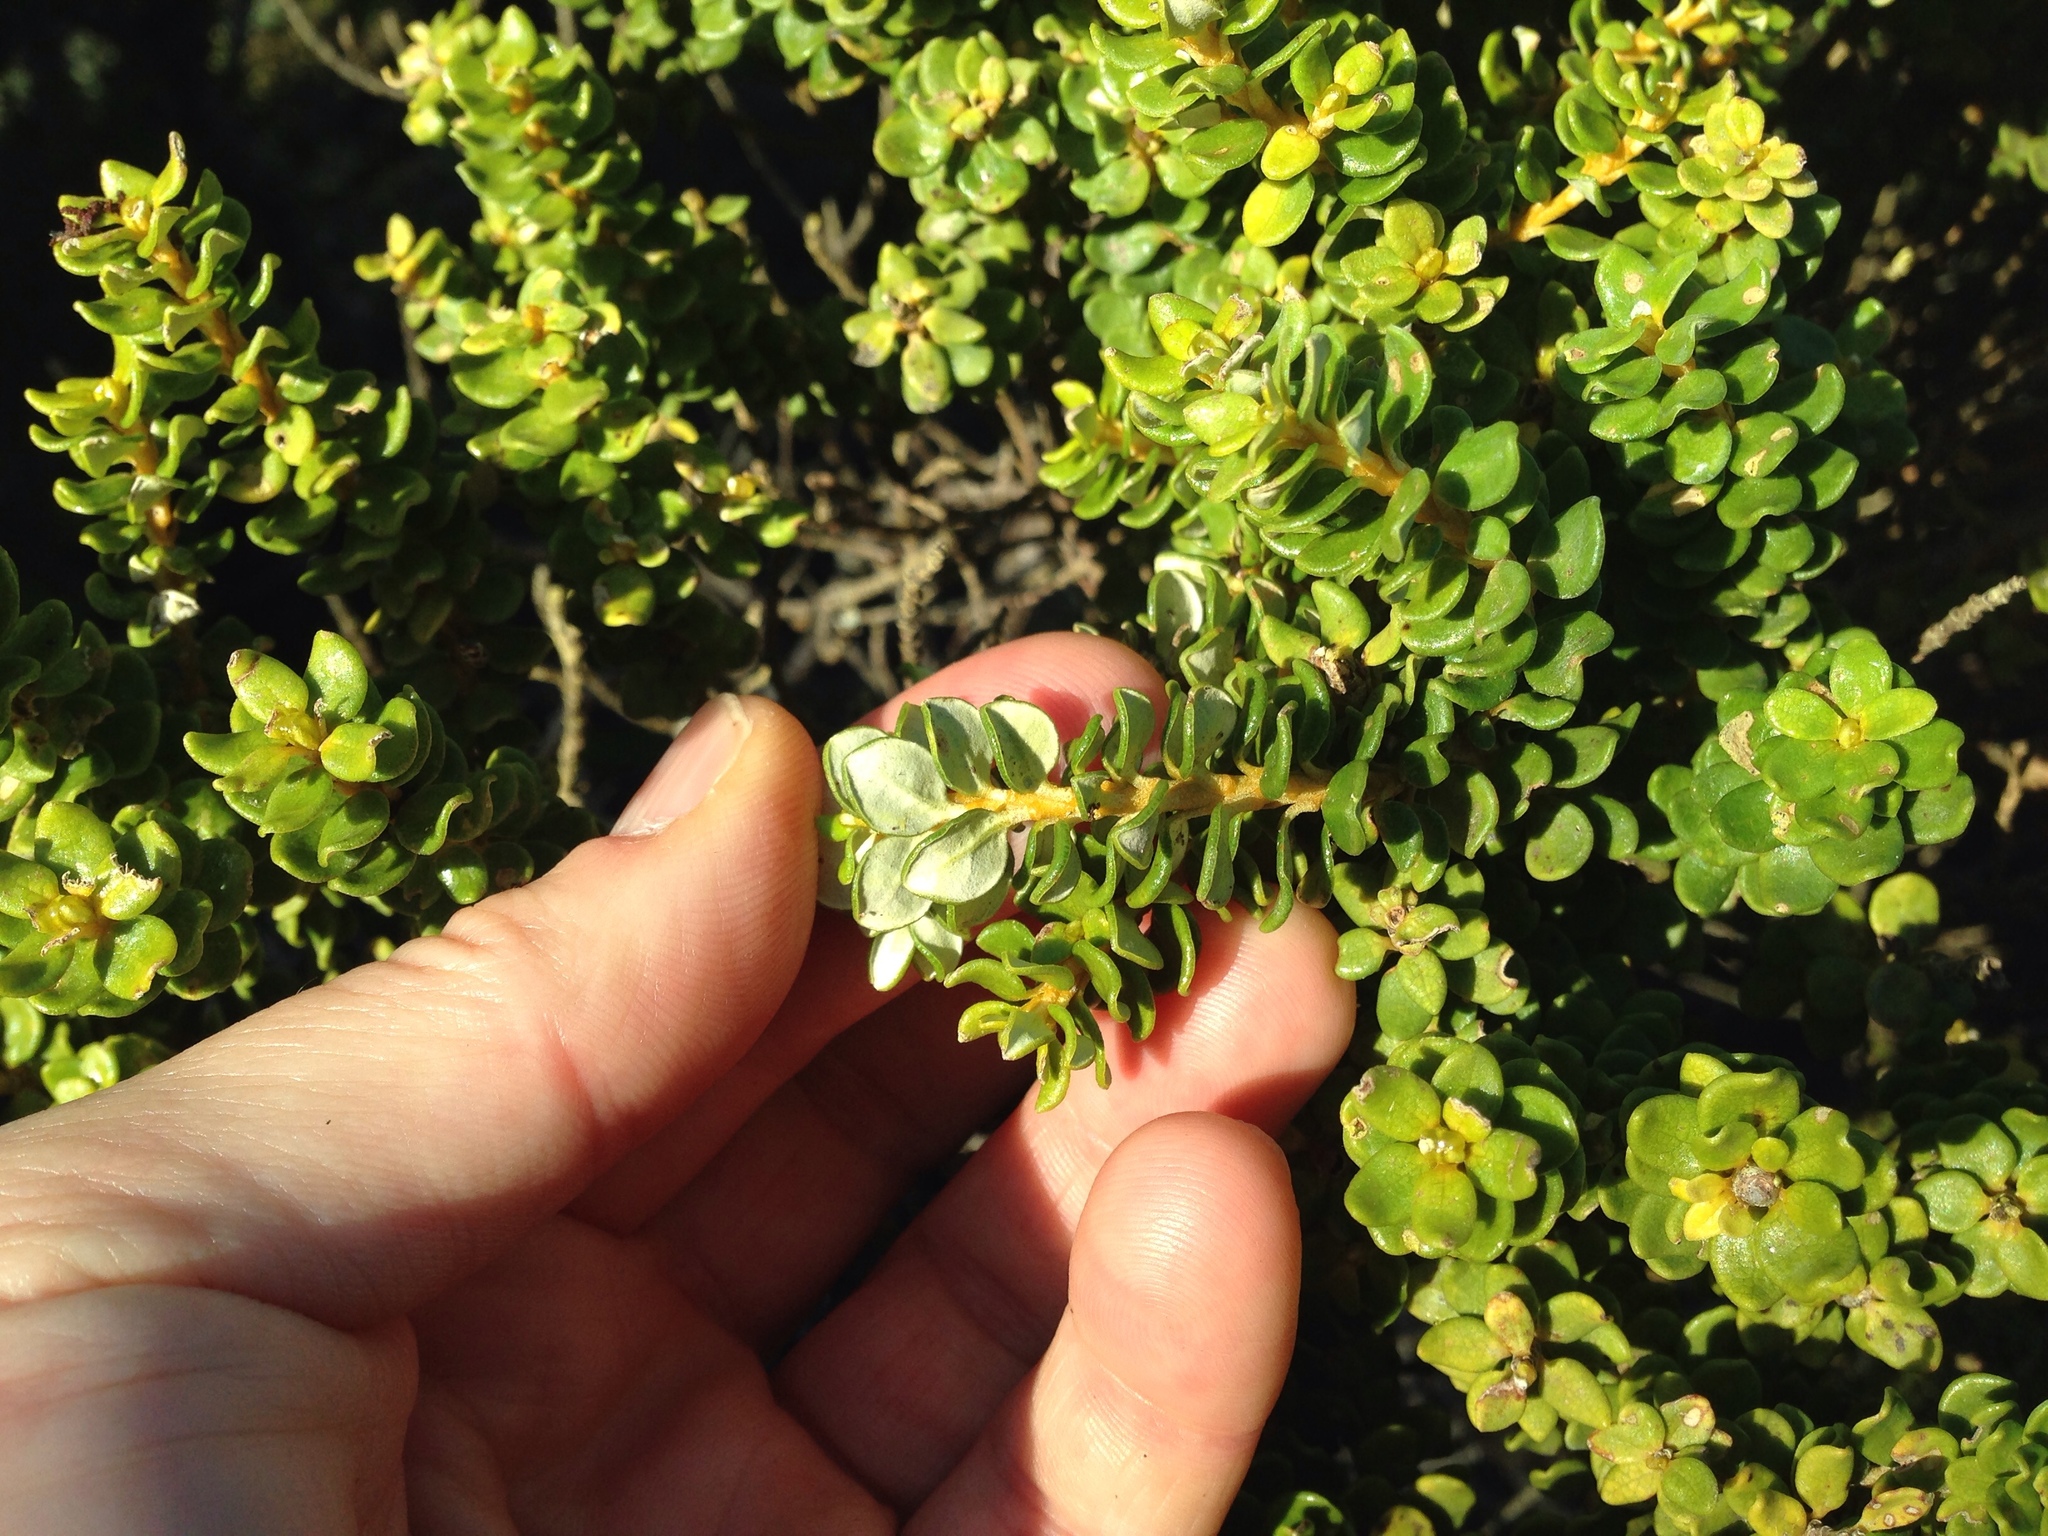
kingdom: Plantae
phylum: Tracheophyta
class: Magnoliopsida
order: Asterales
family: Asteraceae
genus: Olearia
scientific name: Olearia nummularifolia
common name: Sticky daisybush
